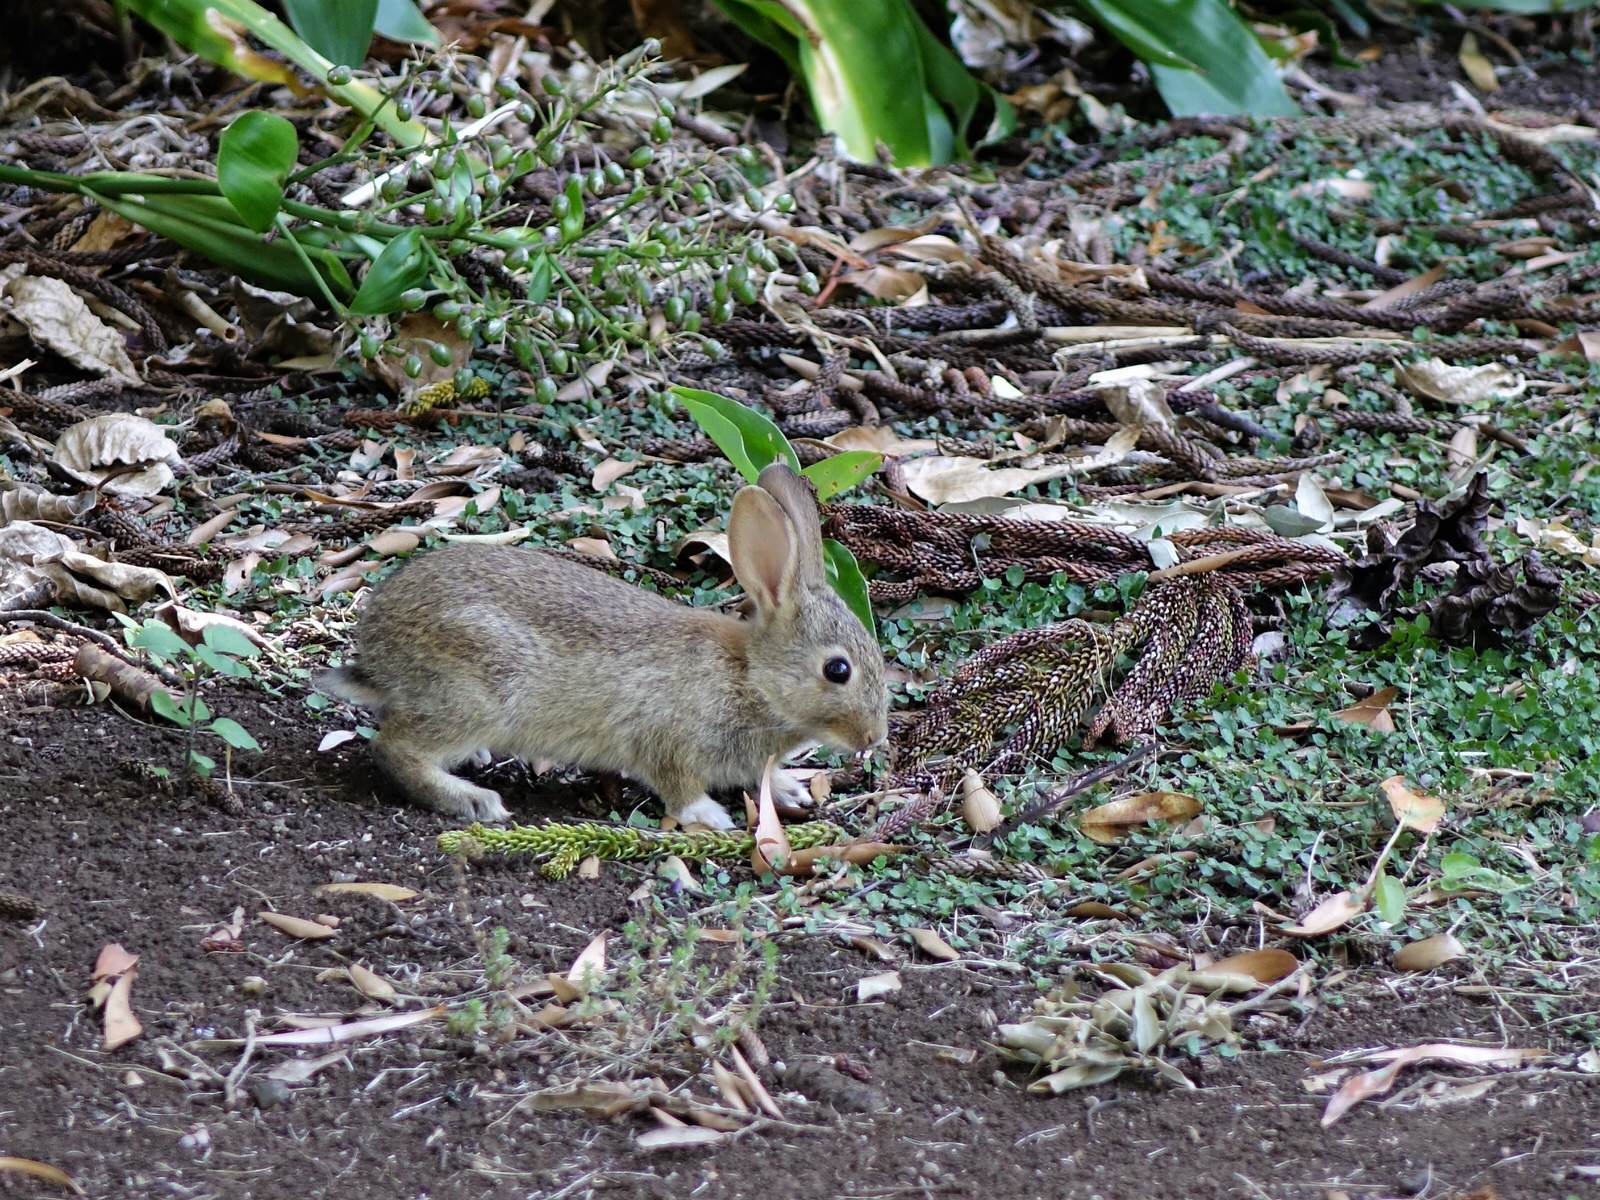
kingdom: Animalia
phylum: Chordata
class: Mammalia
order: Lagomorpha
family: Leporidae
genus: Oryctolagus
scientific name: Oryctolagus cuniculus
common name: European rabbit
